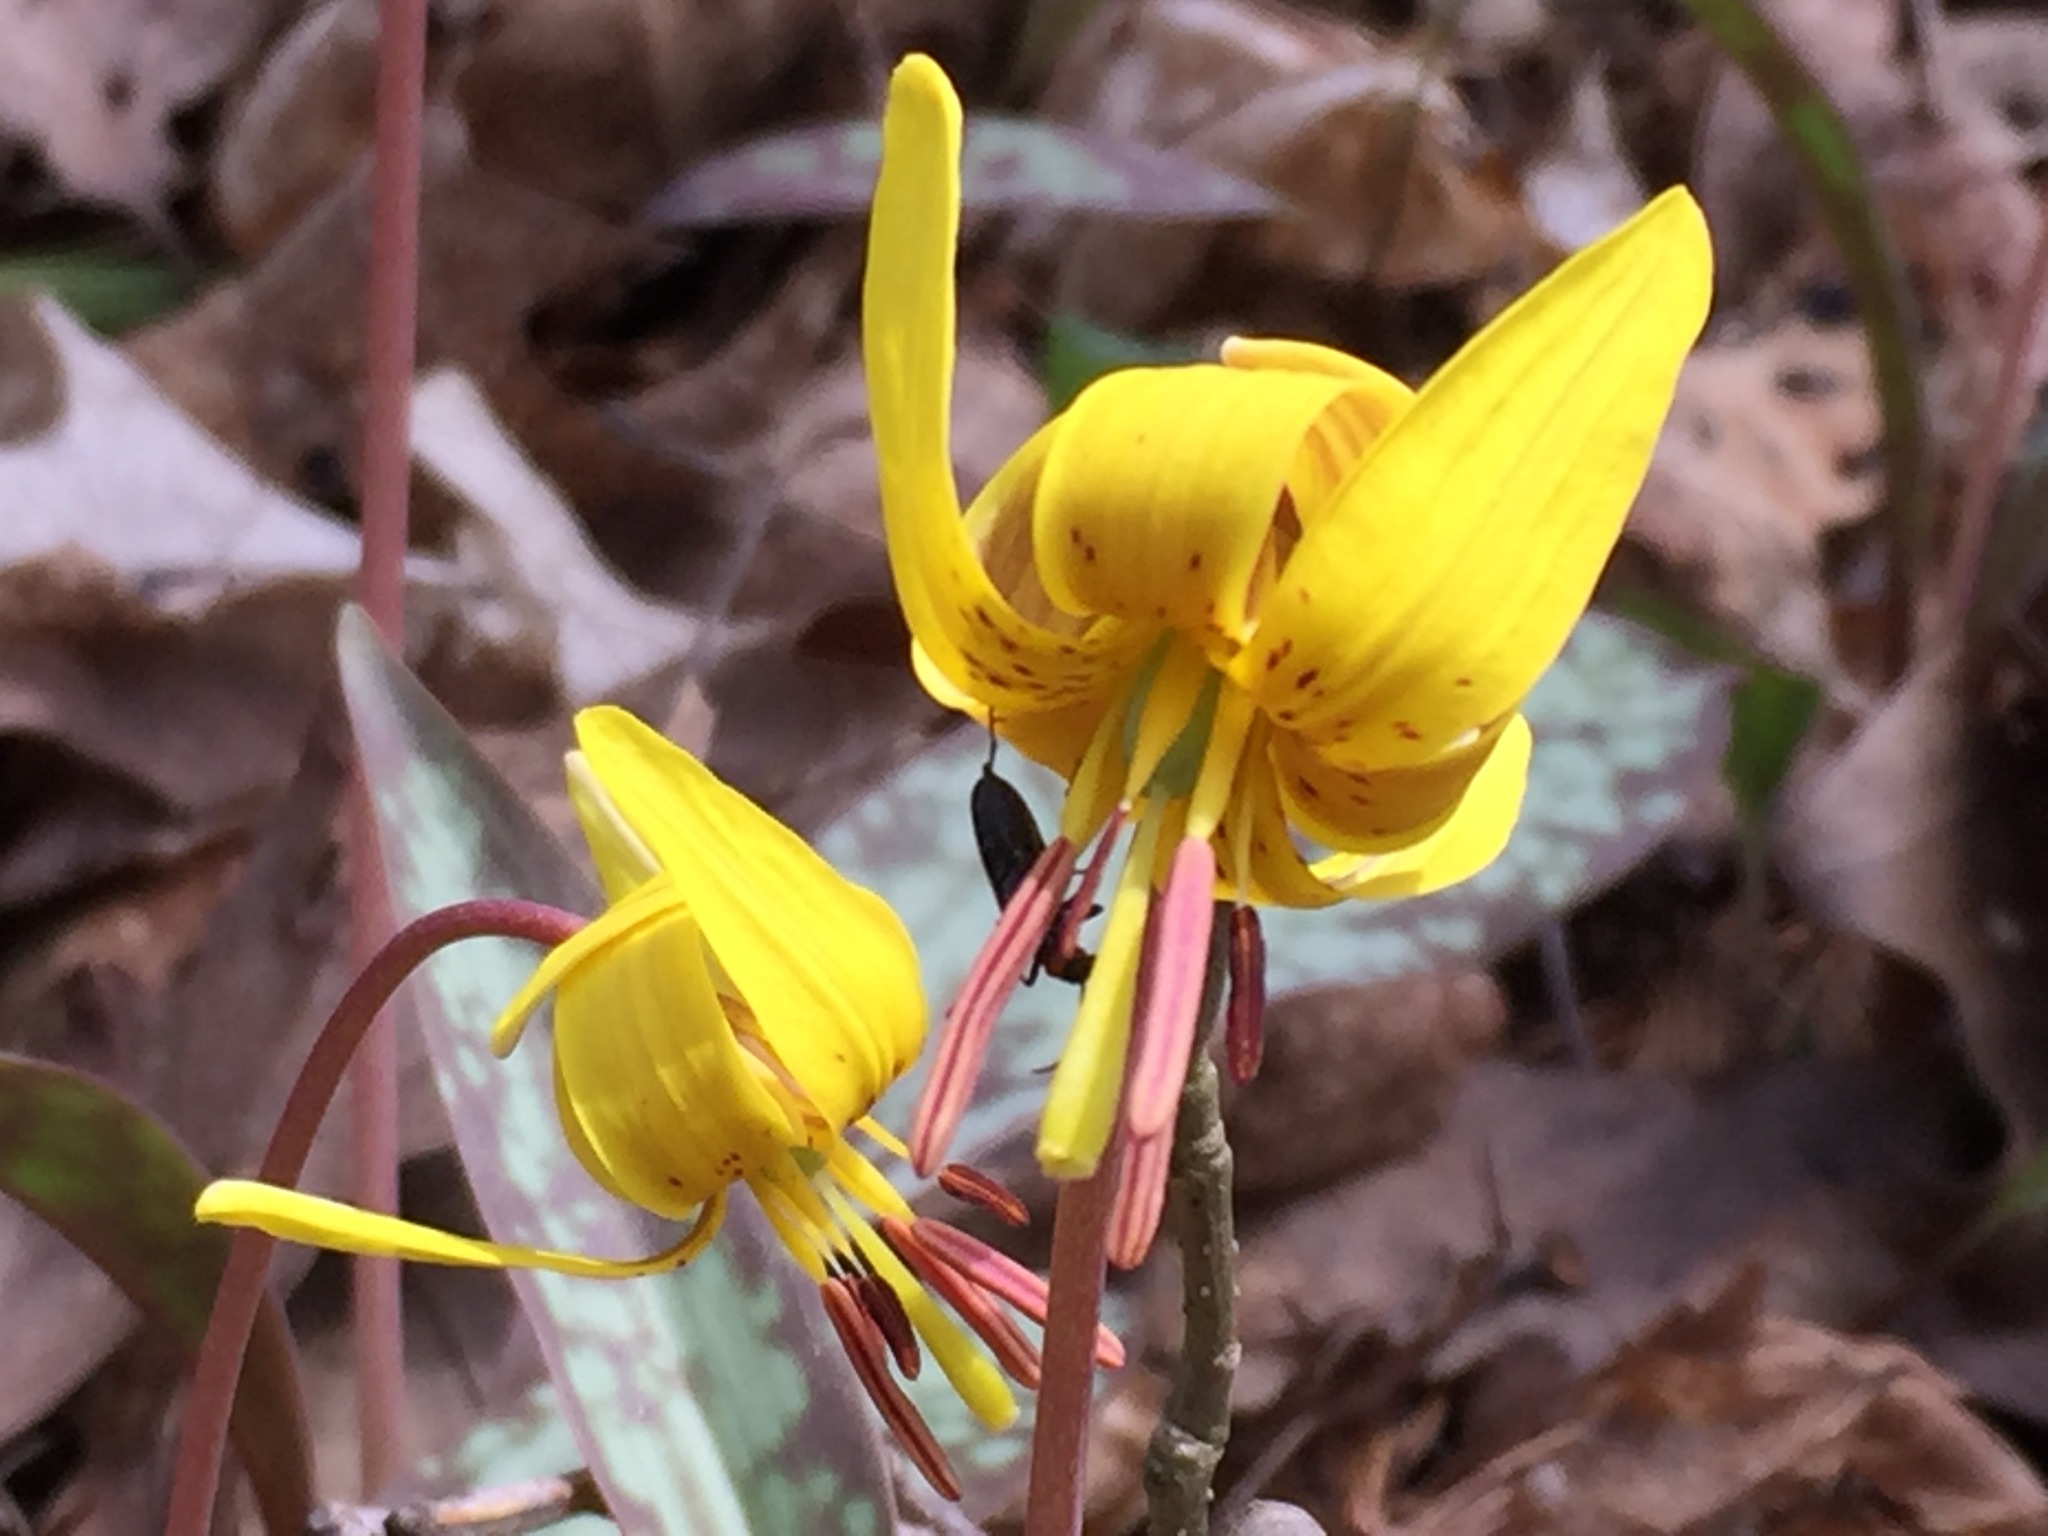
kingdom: Plantae
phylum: Tracheophyta
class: Liliopsida
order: Liliales
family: Liliaceae
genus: Erythronium
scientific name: Erythronium americanum
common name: Yellow adder's-tongue
